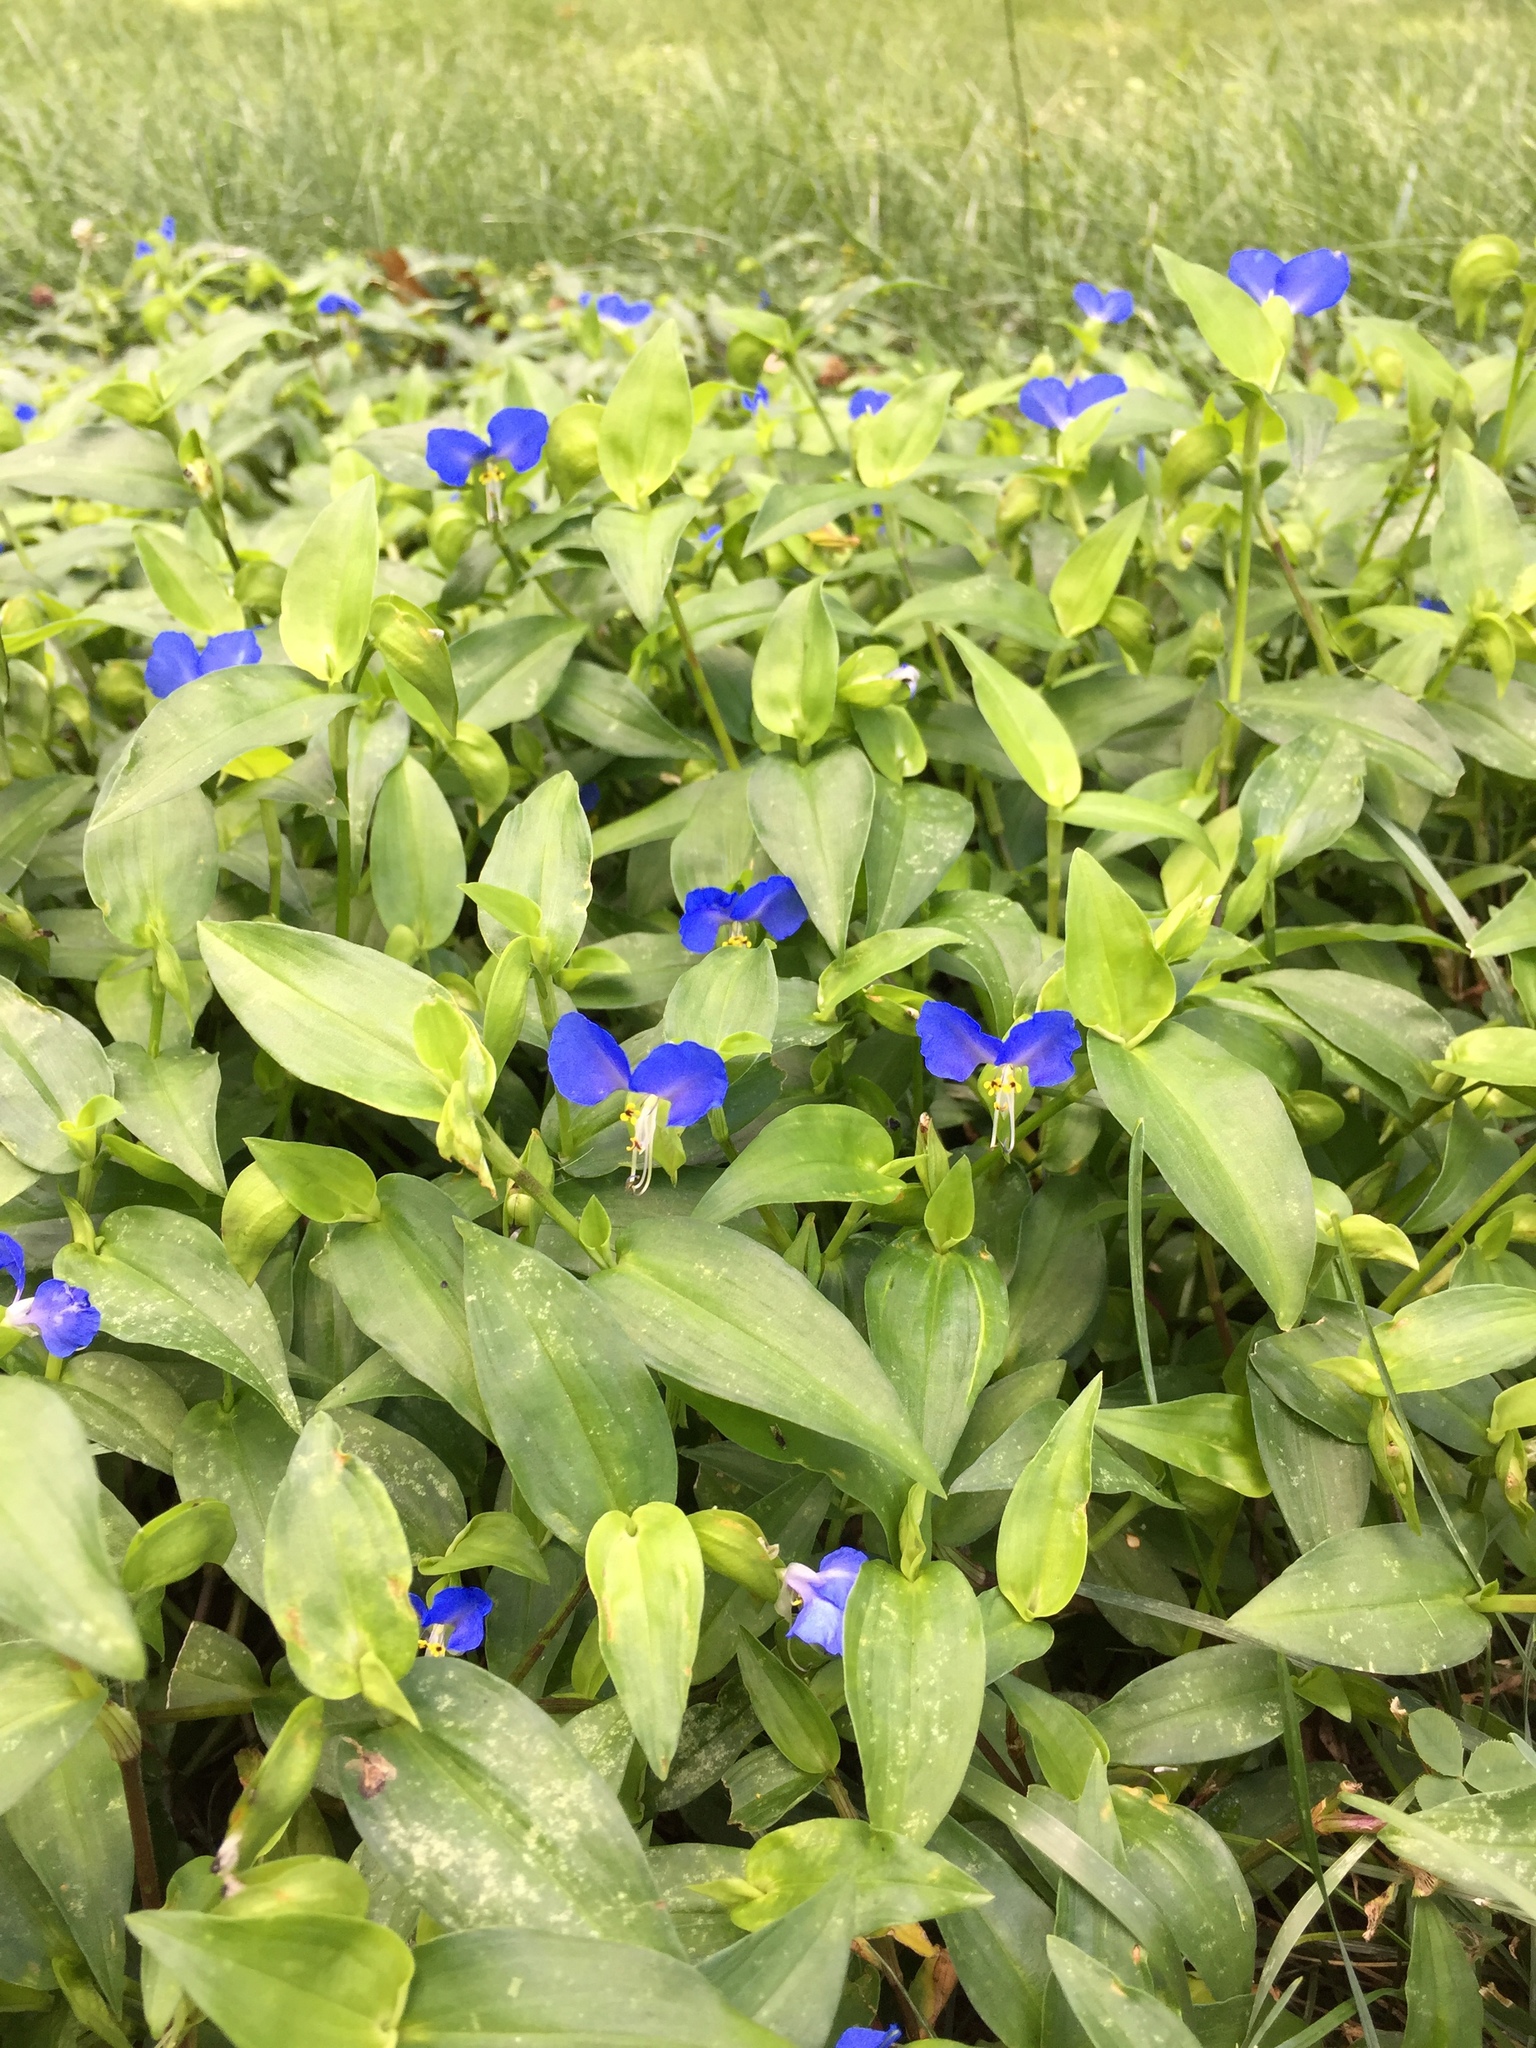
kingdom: Plantae
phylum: Tracheophyta
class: Liliopsida
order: Commelinales
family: Commelinaceae
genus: Commelina
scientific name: Commelina communis
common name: Asiatic dayflower
